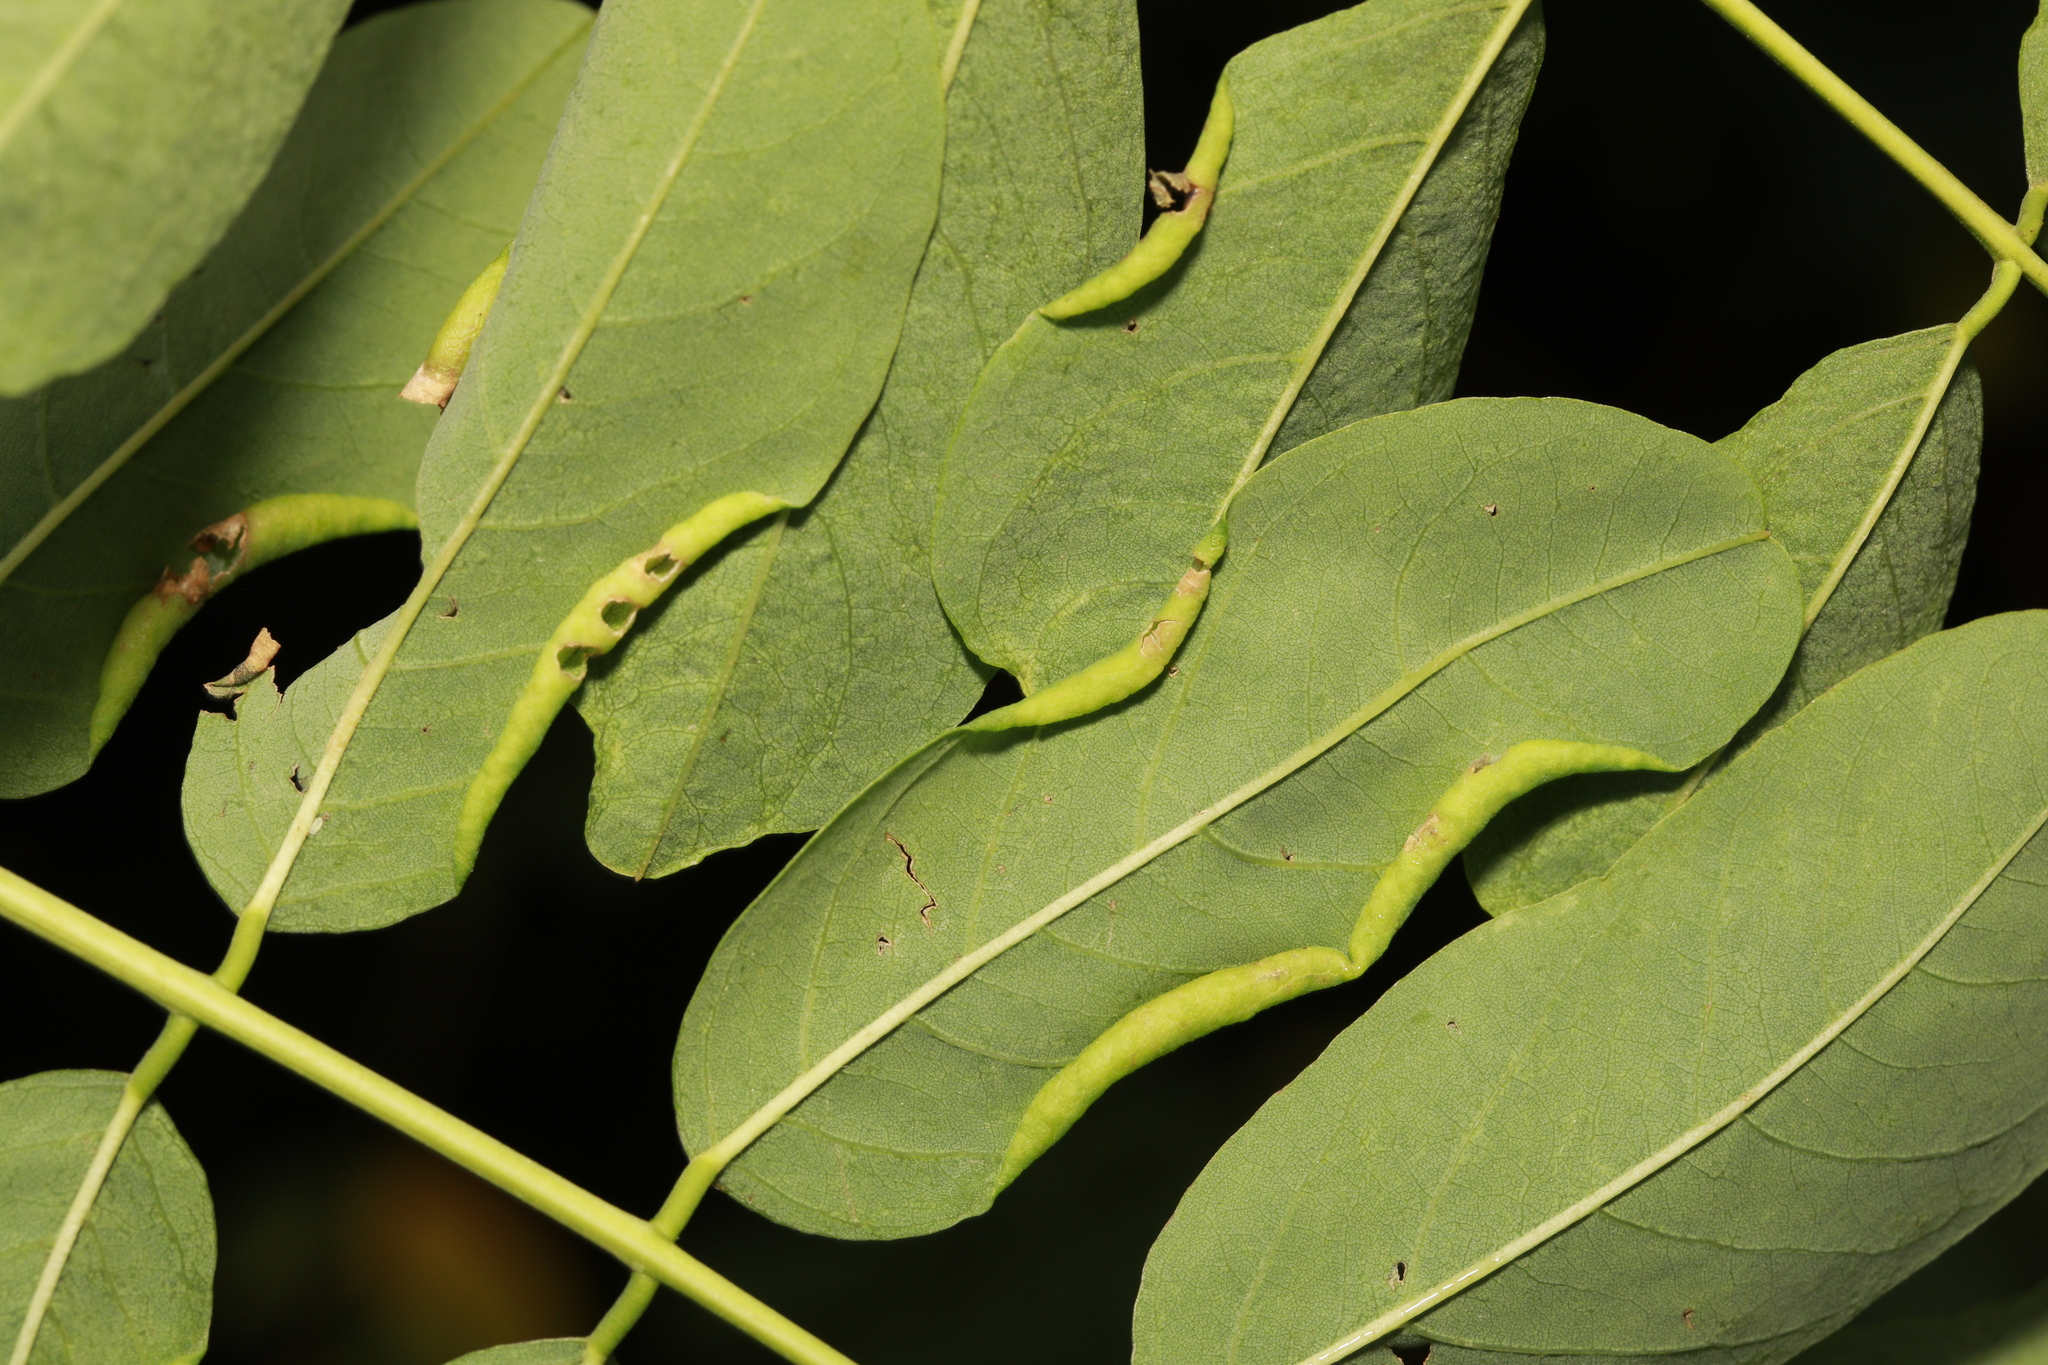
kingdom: Animalia
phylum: Arthropoda
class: Insecta
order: Diptera
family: Cecidomyiidae
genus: Obolodiplosis
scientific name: Obolodiplosis robiniae
